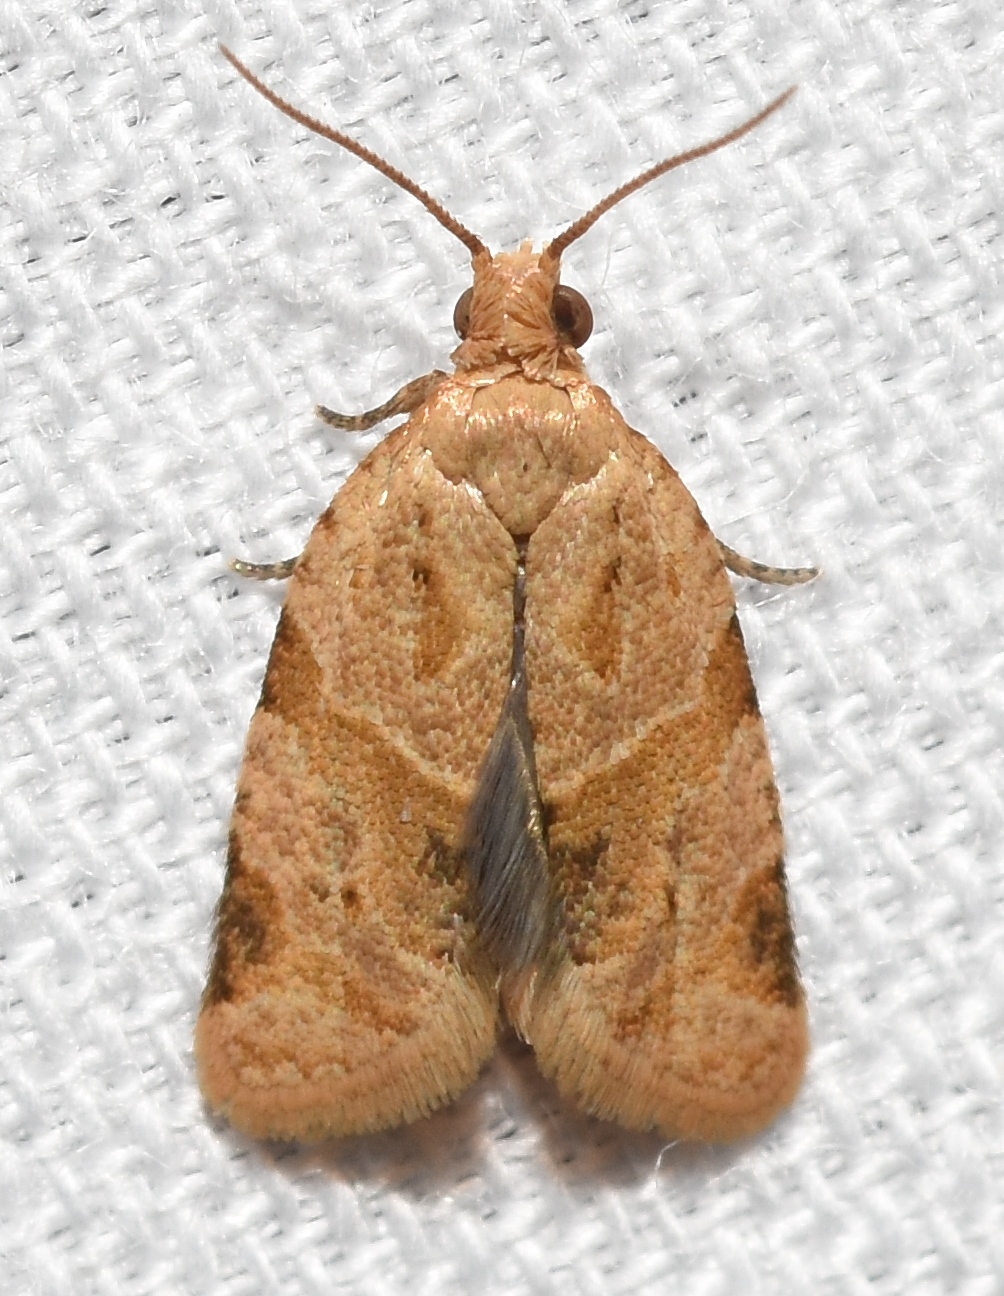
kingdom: Animalia
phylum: Arthropoda
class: Insecta
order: Lepidoptera
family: Tortricidae
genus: Clepsis
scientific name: Clepsis peritana
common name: Garden tortrix
